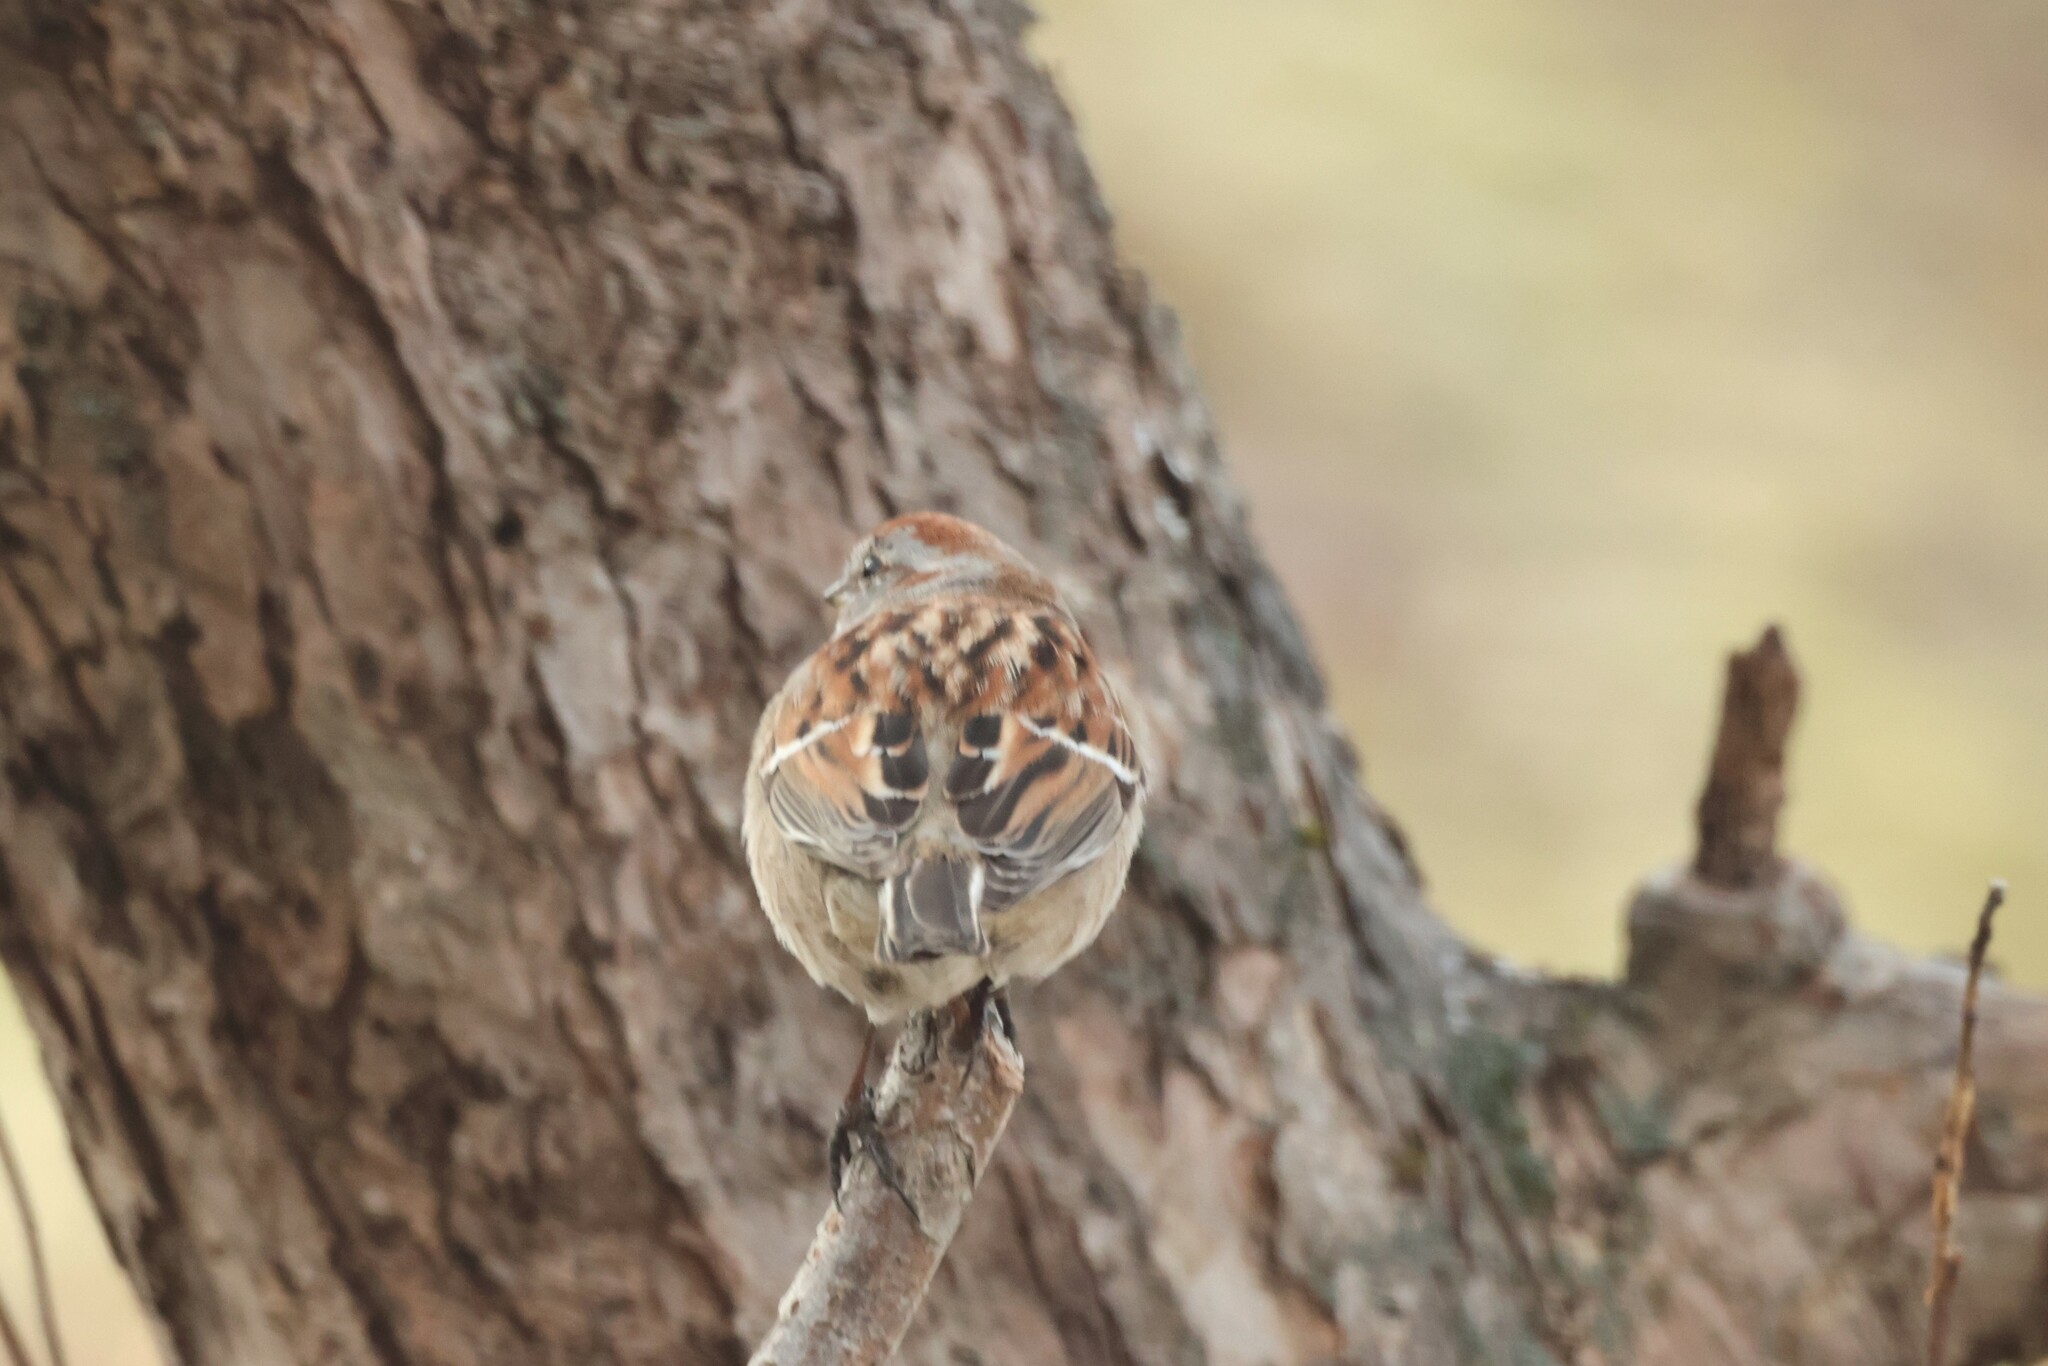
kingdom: Animalia
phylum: Chordata
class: Aves
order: Passeriformes
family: Passerellidae
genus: Spizelloides
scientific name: Spizelloides arborea
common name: American tree sparrow
